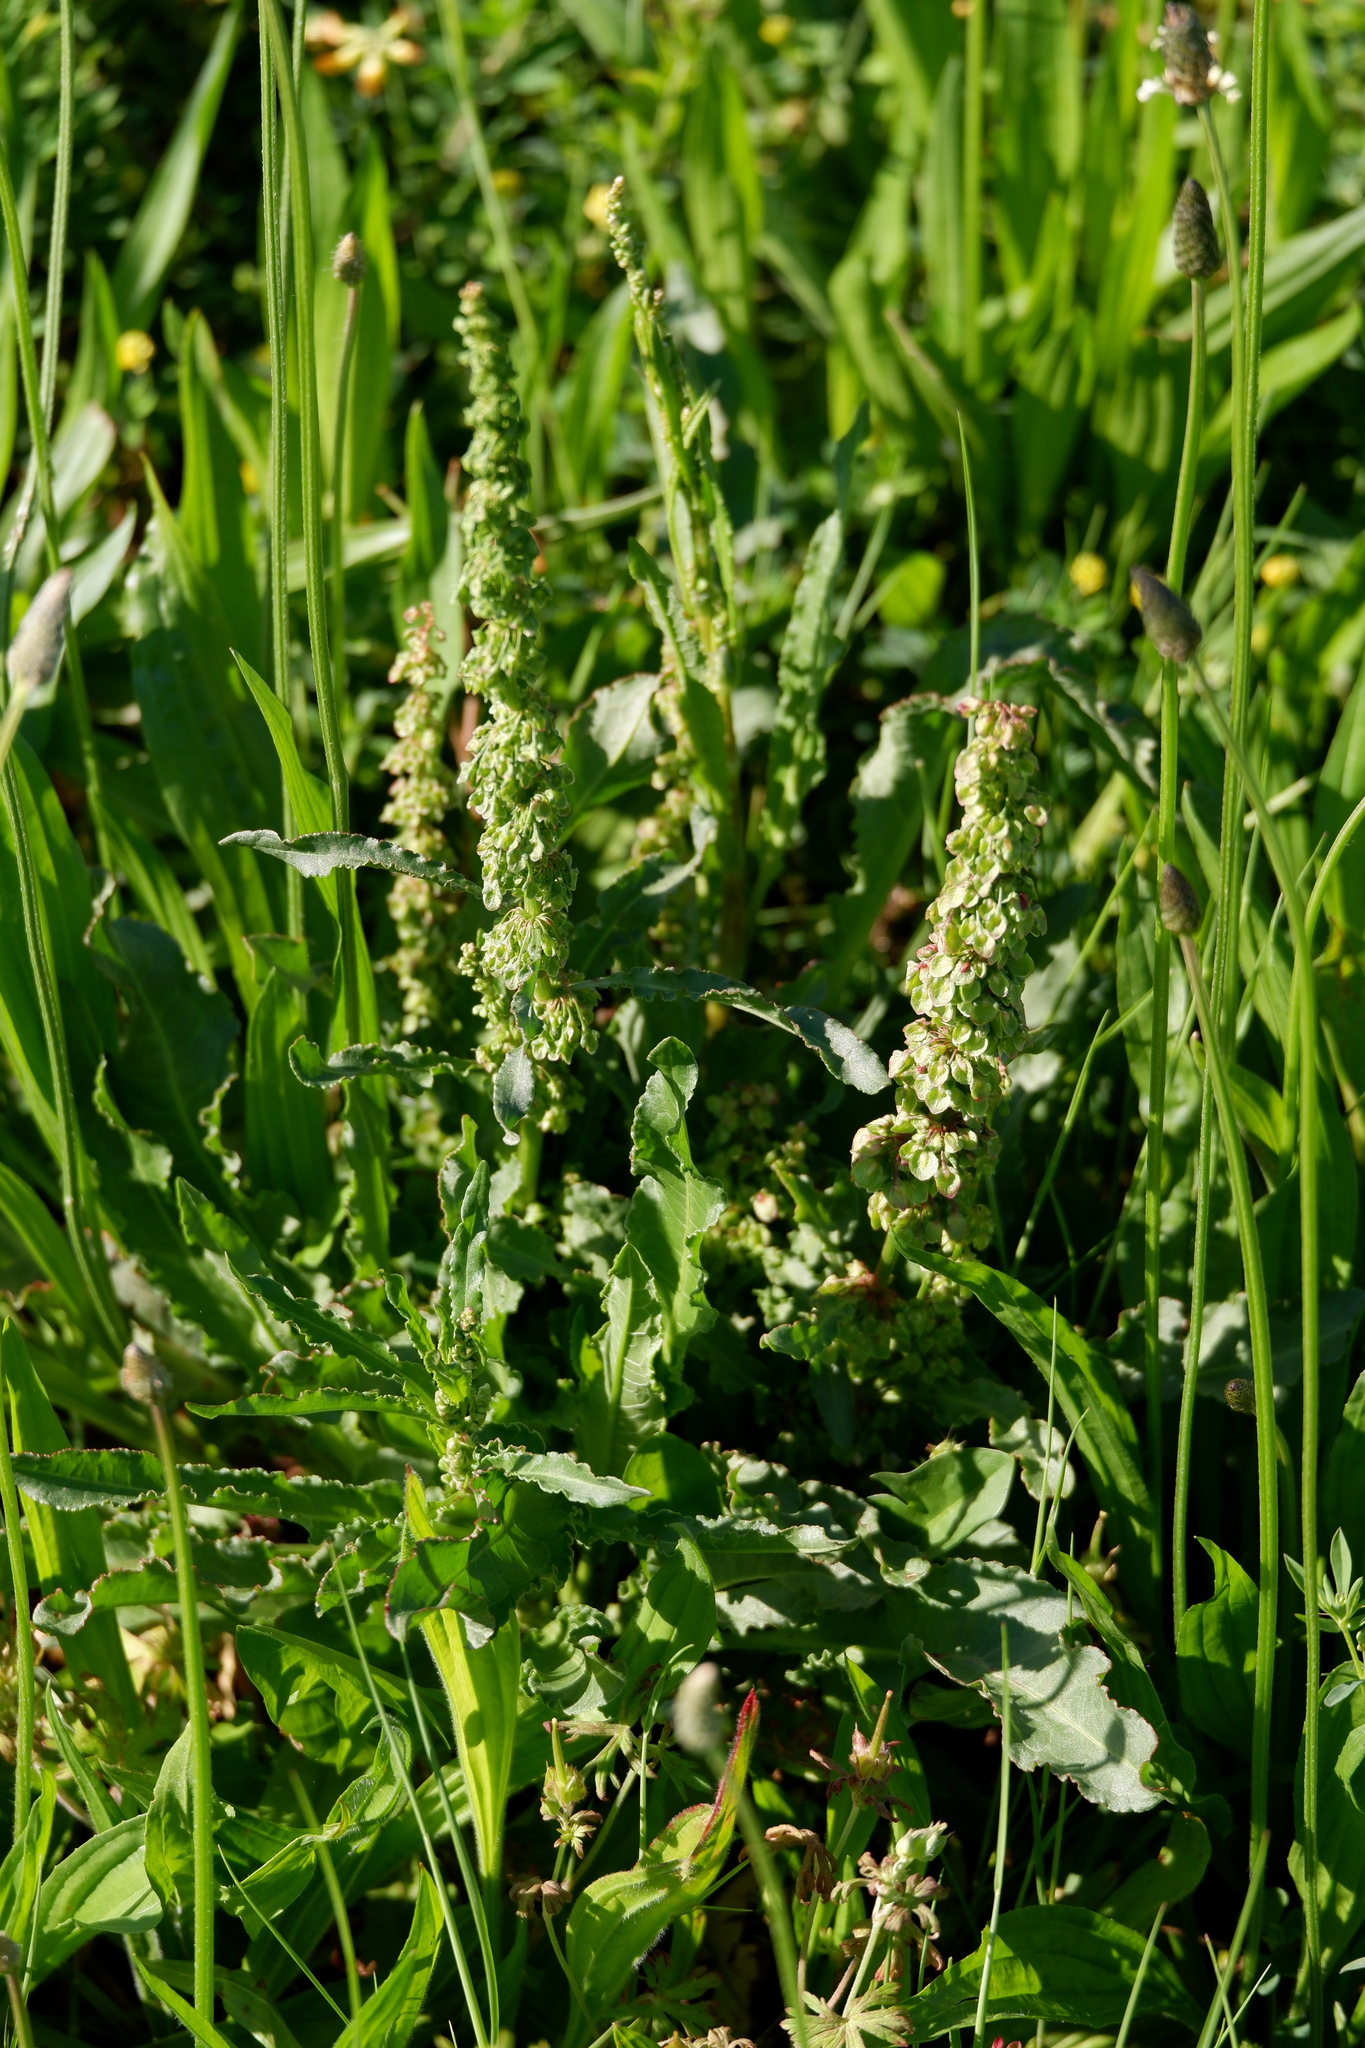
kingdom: Plantae
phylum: Tracheophyta
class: Magnoliopsida
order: Caryophyllales
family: Polygonaceae
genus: Rumex
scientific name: Rumex crispus
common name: Curled dock
